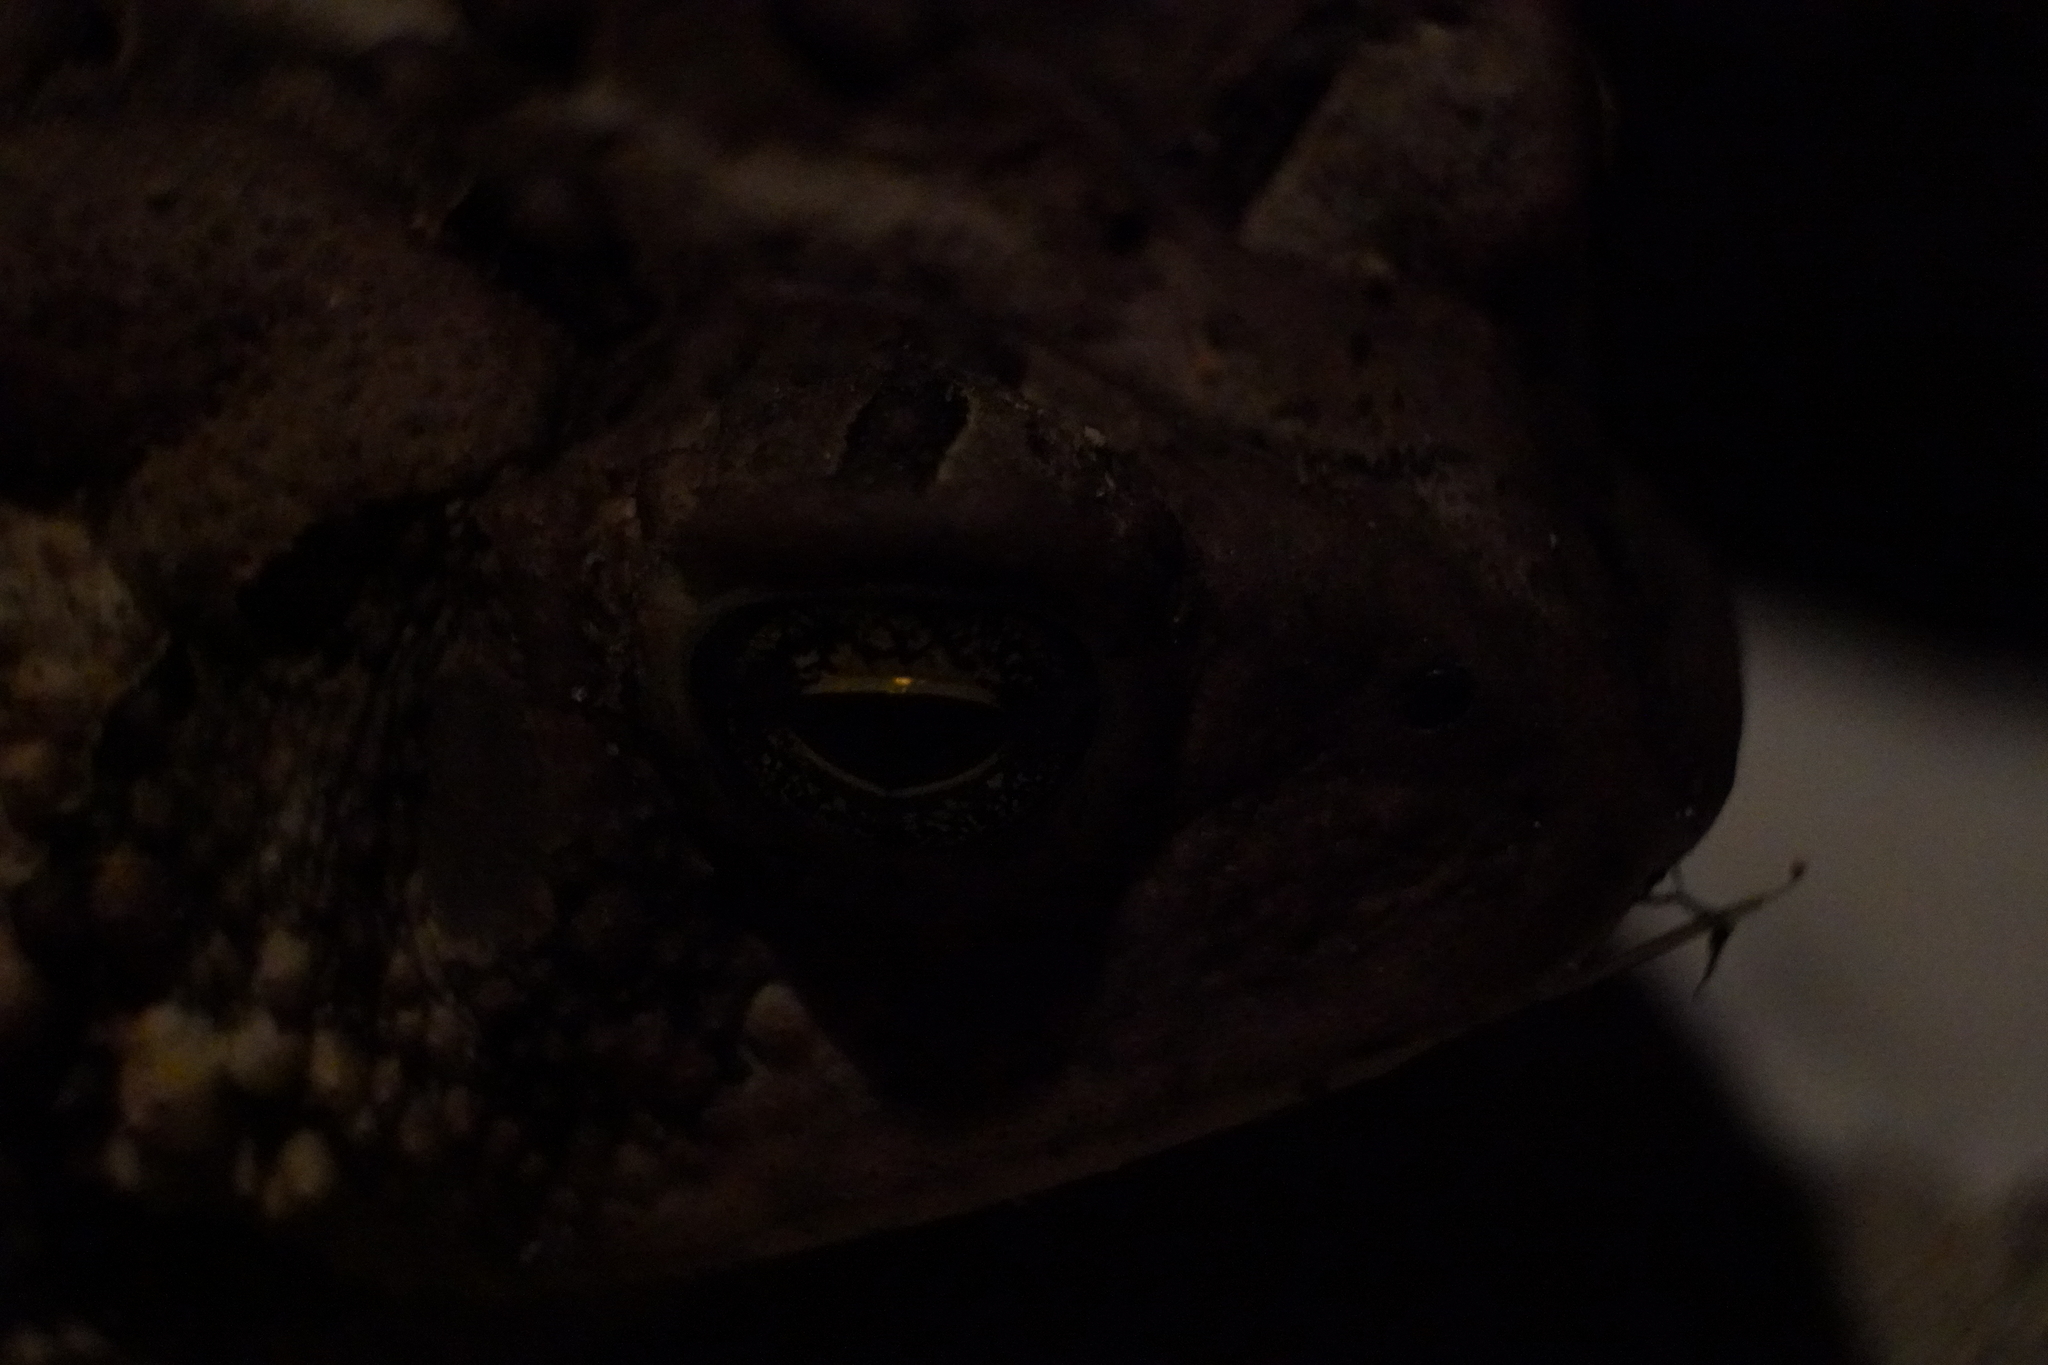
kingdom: Animalia
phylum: Chordata
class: Amphibia
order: Anura
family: Bufonidae
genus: Anaxyrus
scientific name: Anaxyrus americanus
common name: American toad
